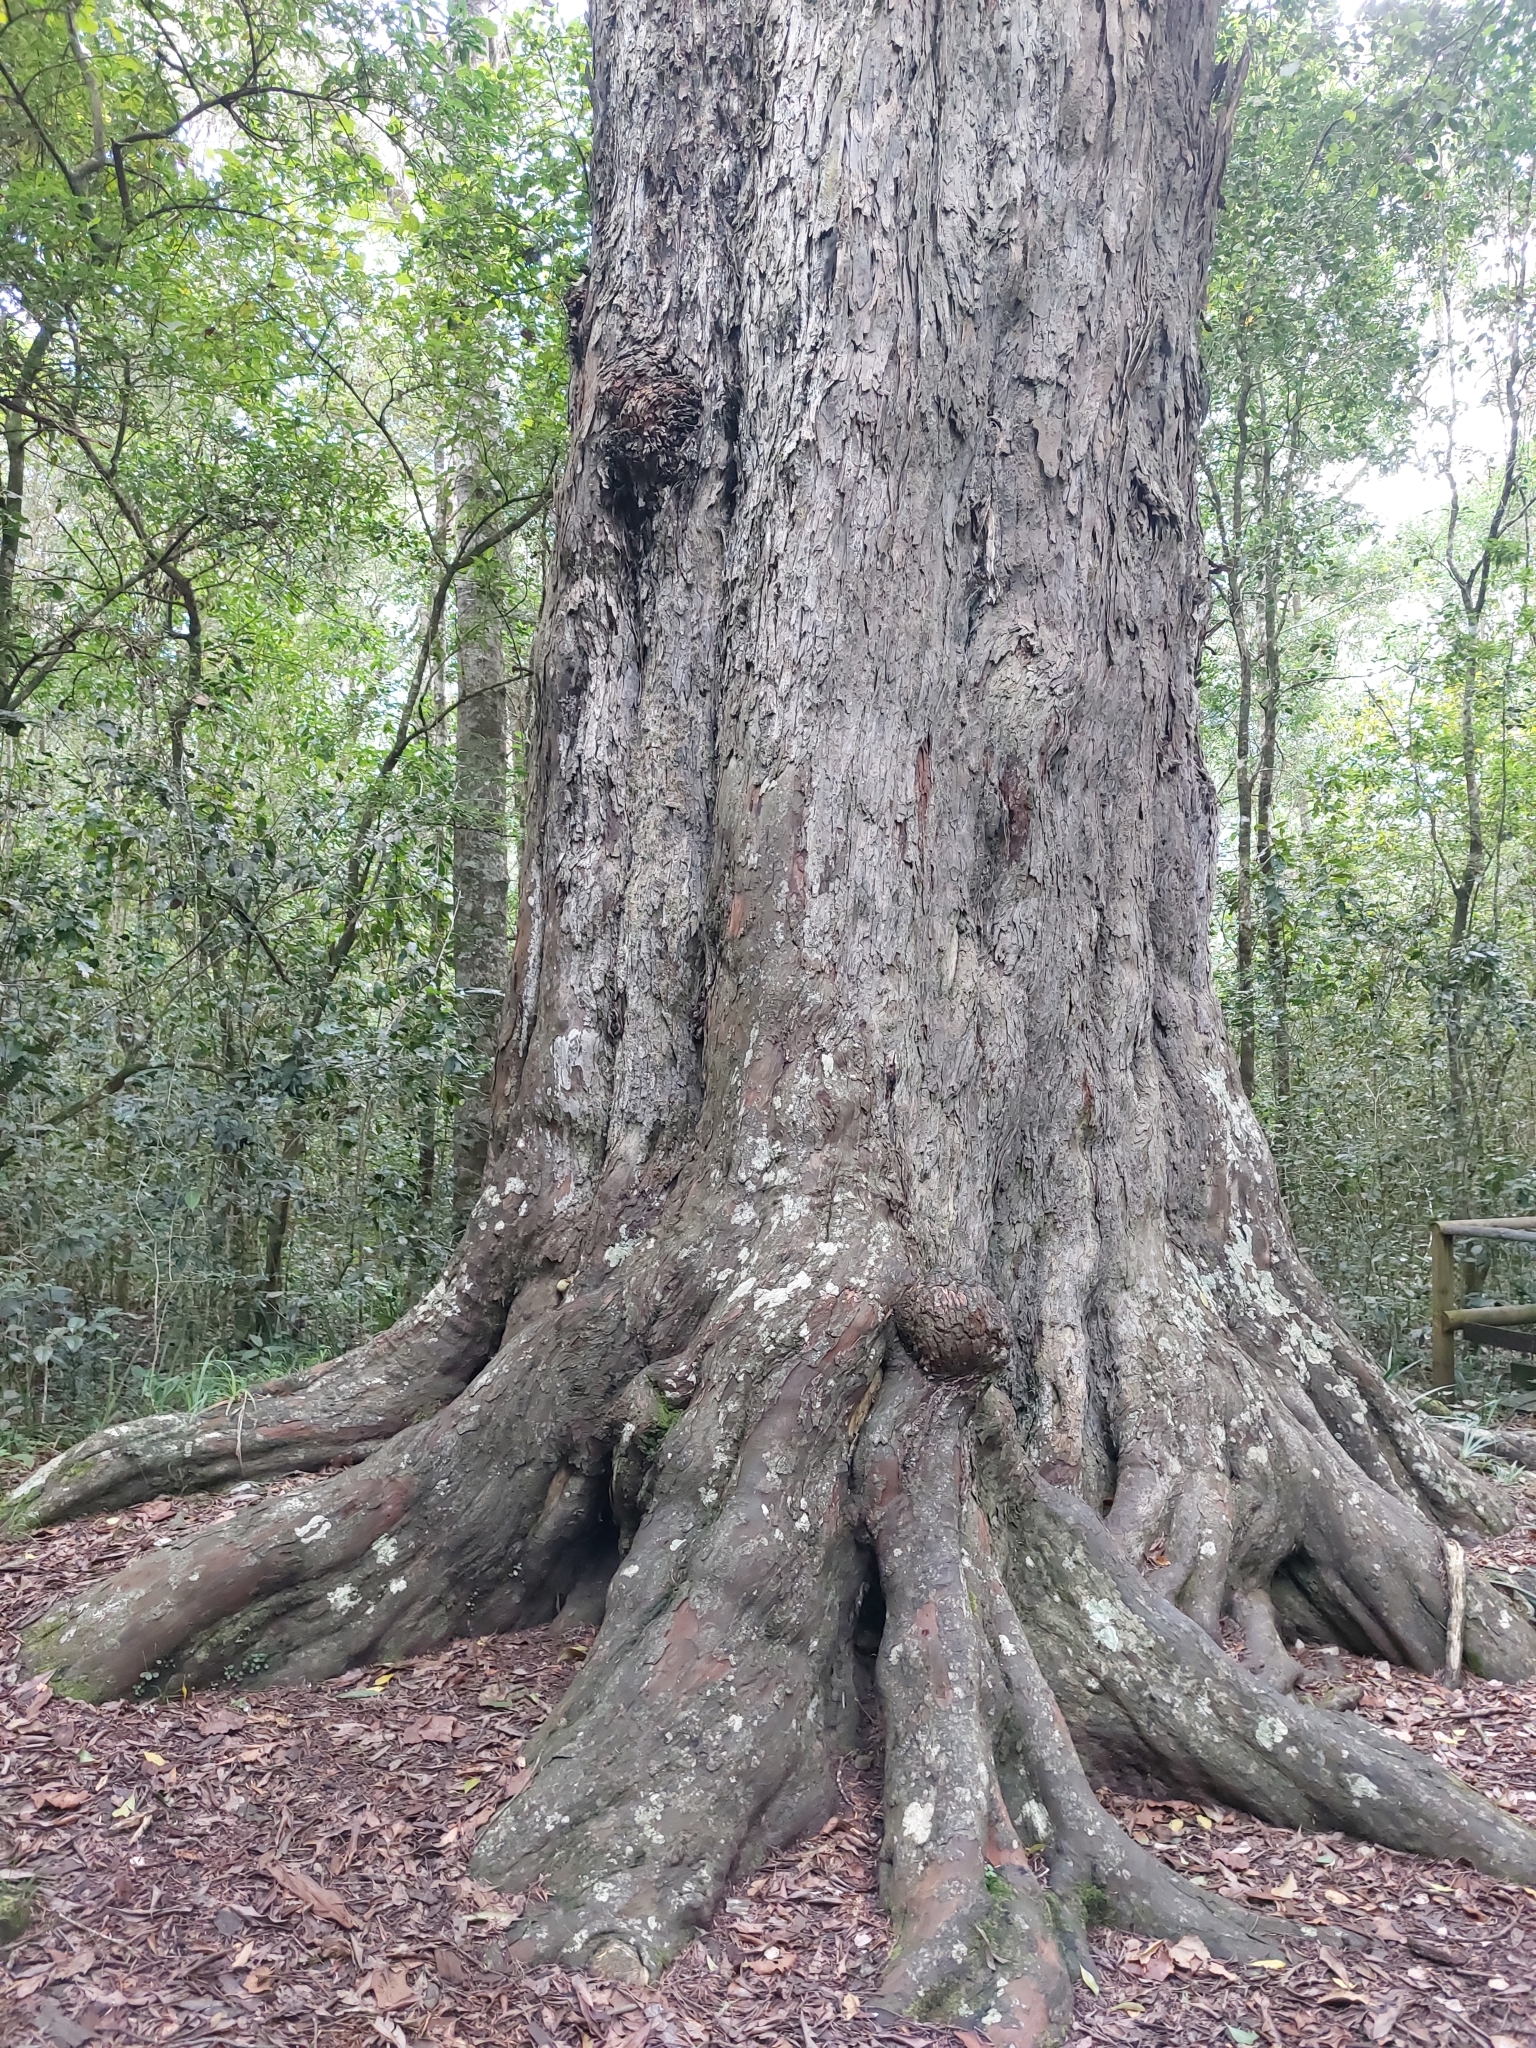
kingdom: Plantae
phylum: Tracheophyta
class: Pinopsida
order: Pinales
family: Podocarpaceae
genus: Afrocarpus
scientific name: Afrocarpus falcatus
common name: Bastard yellowwood
